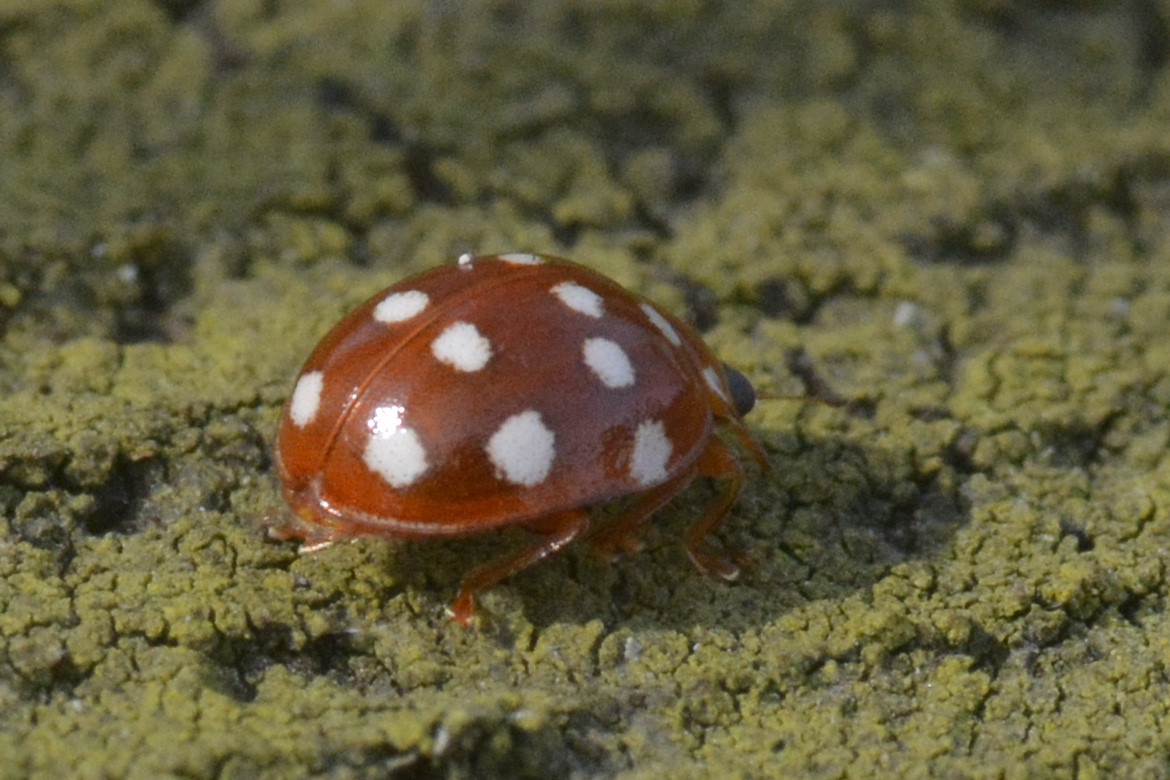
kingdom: Animalia
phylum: Arthropoda
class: Insecta
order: Coleoptera
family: Coccinellidae
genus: Calvia
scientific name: Calvia quatuordecimguttata
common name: Cream-spot ladybird
